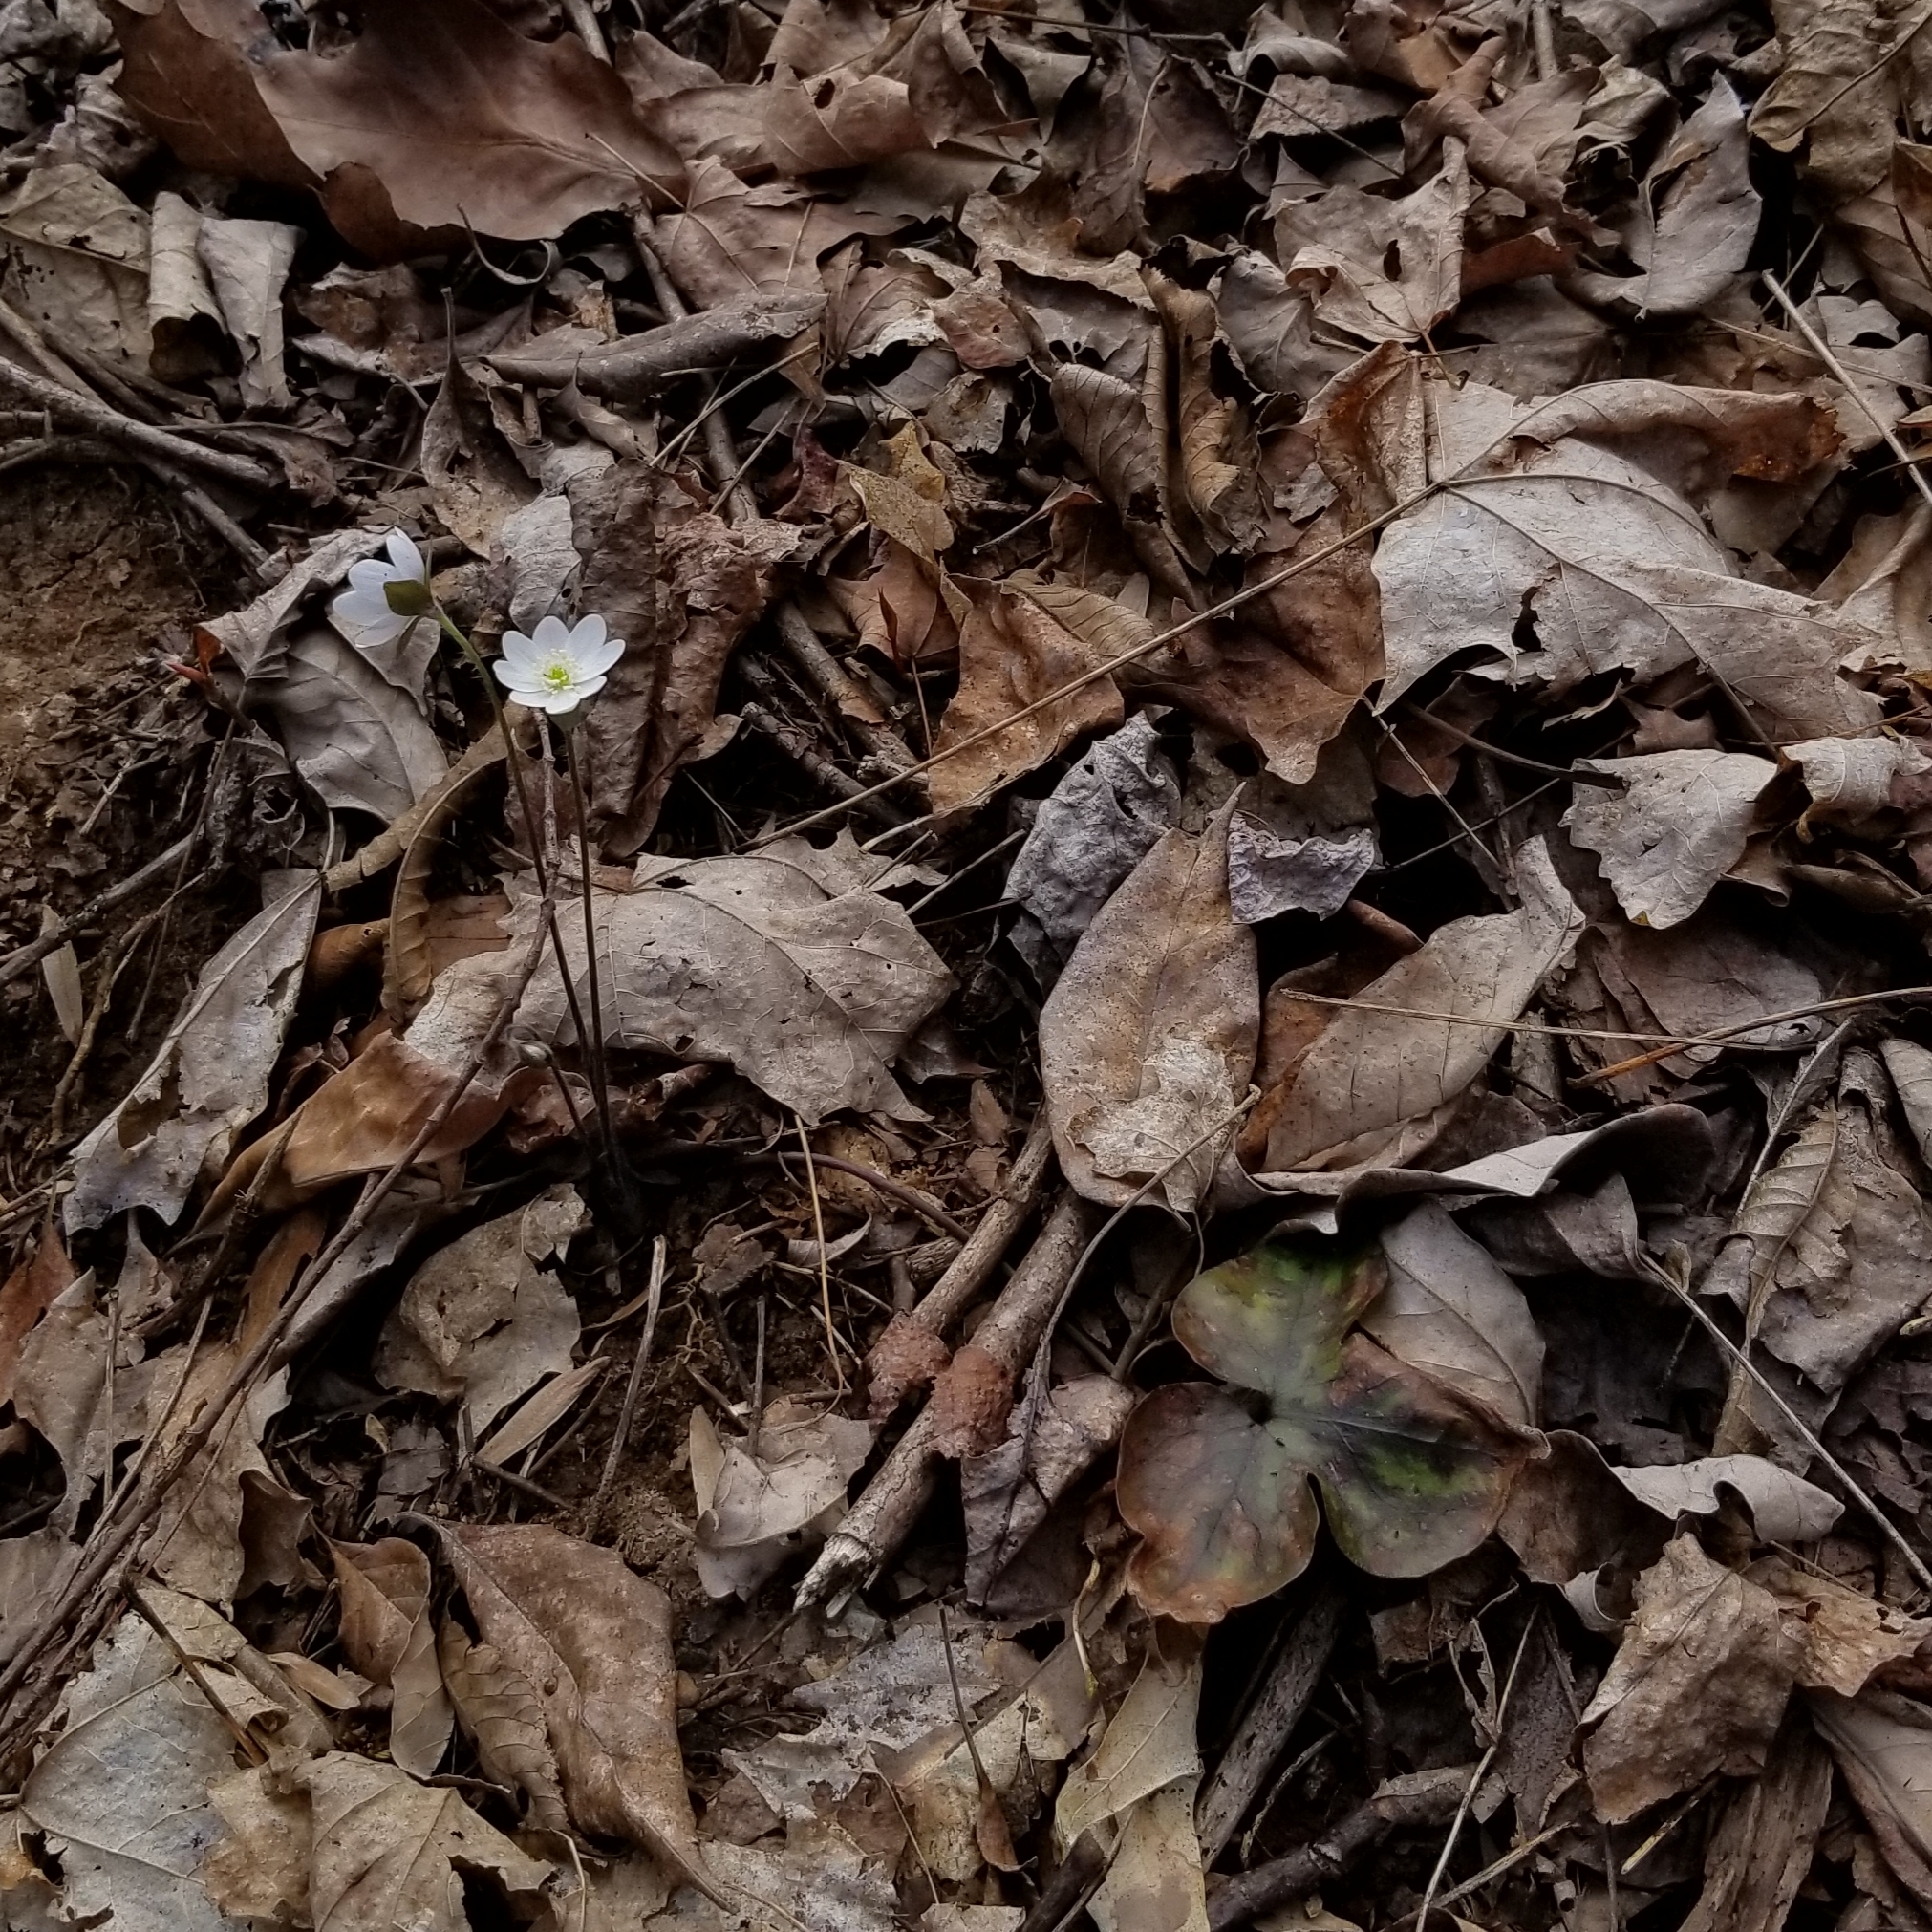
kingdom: Plantae
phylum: Tracheophyta
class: Magnoliopsida
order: Ranunculales
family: Ranunculaceae
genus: Hepatica
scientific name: Hepatica acutiloba
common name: Sharp-lobed hepatica
